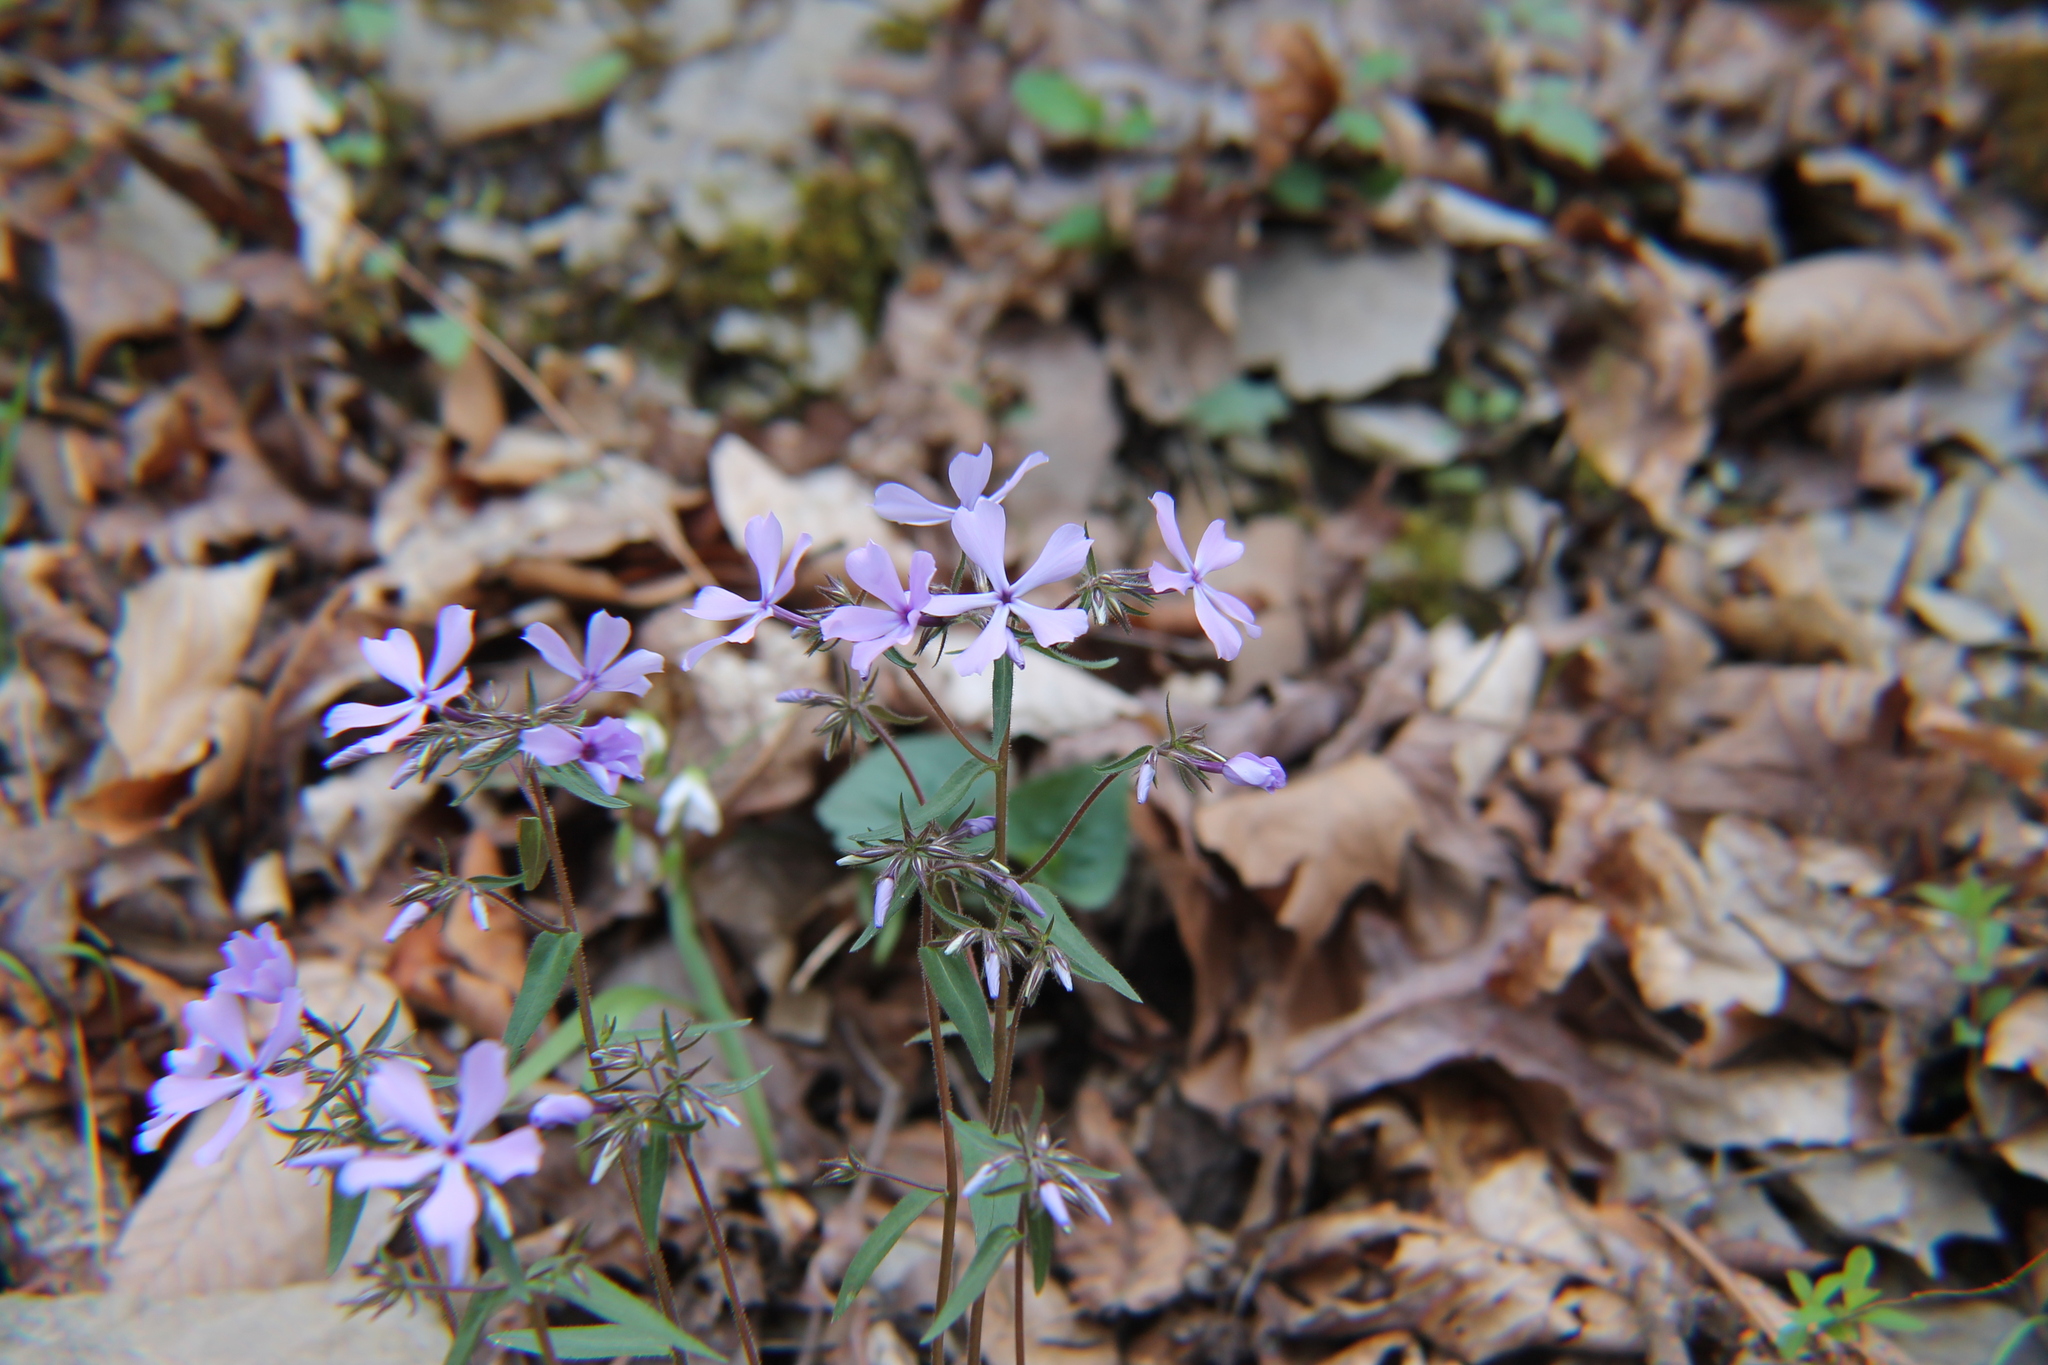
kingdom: Plantae
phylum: Tracheophyta
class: Magnoliopsida
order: Ericales
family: Polemoniaceae
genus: Phlox
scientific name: Phlox divaricata
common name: Blue phlox
